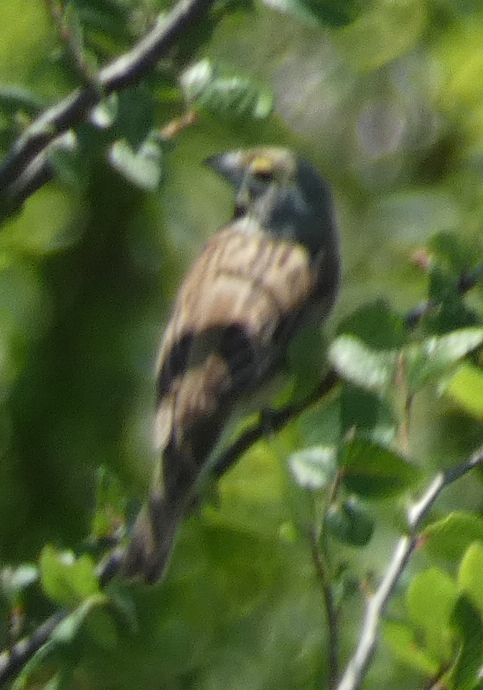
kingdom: Animalia
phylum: Chordata
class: Aves
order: Passeriformes
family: Cardinalidae
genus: Spiza
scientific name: Spiza americana
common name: Dickcissel
